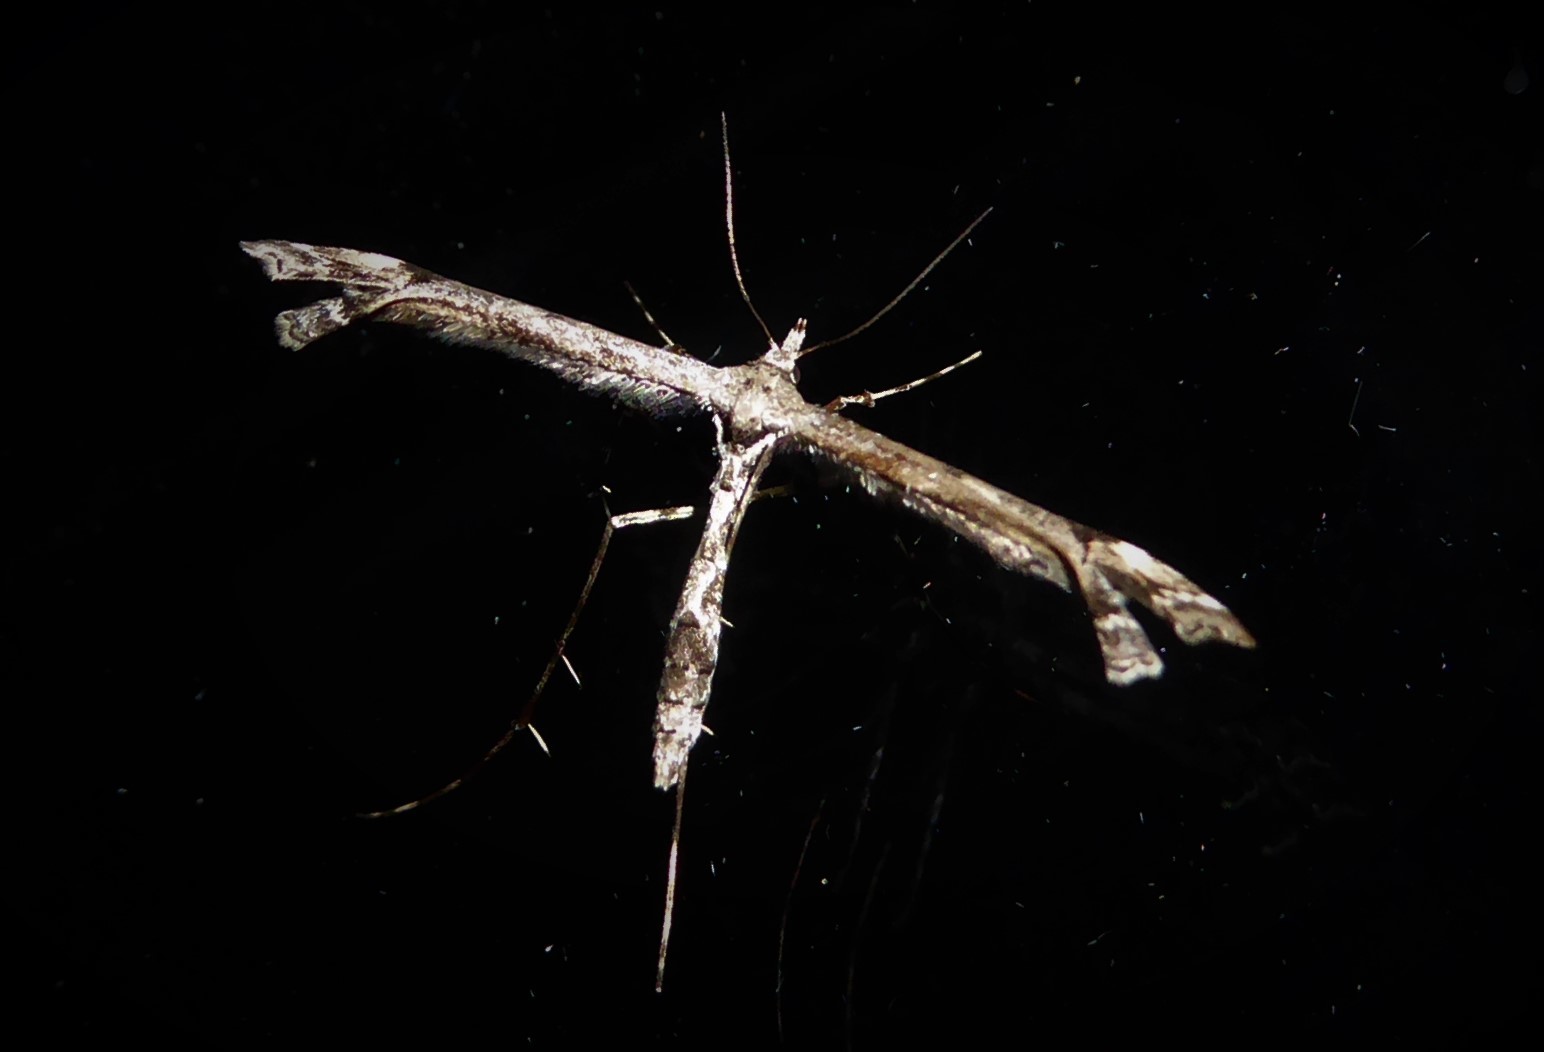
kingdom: Animalia
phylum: Arthropoda
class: Insecta
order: Lepidoptera
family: Pterophoridae
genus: Amblyptilia
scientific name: Amblyptilia repletalis
